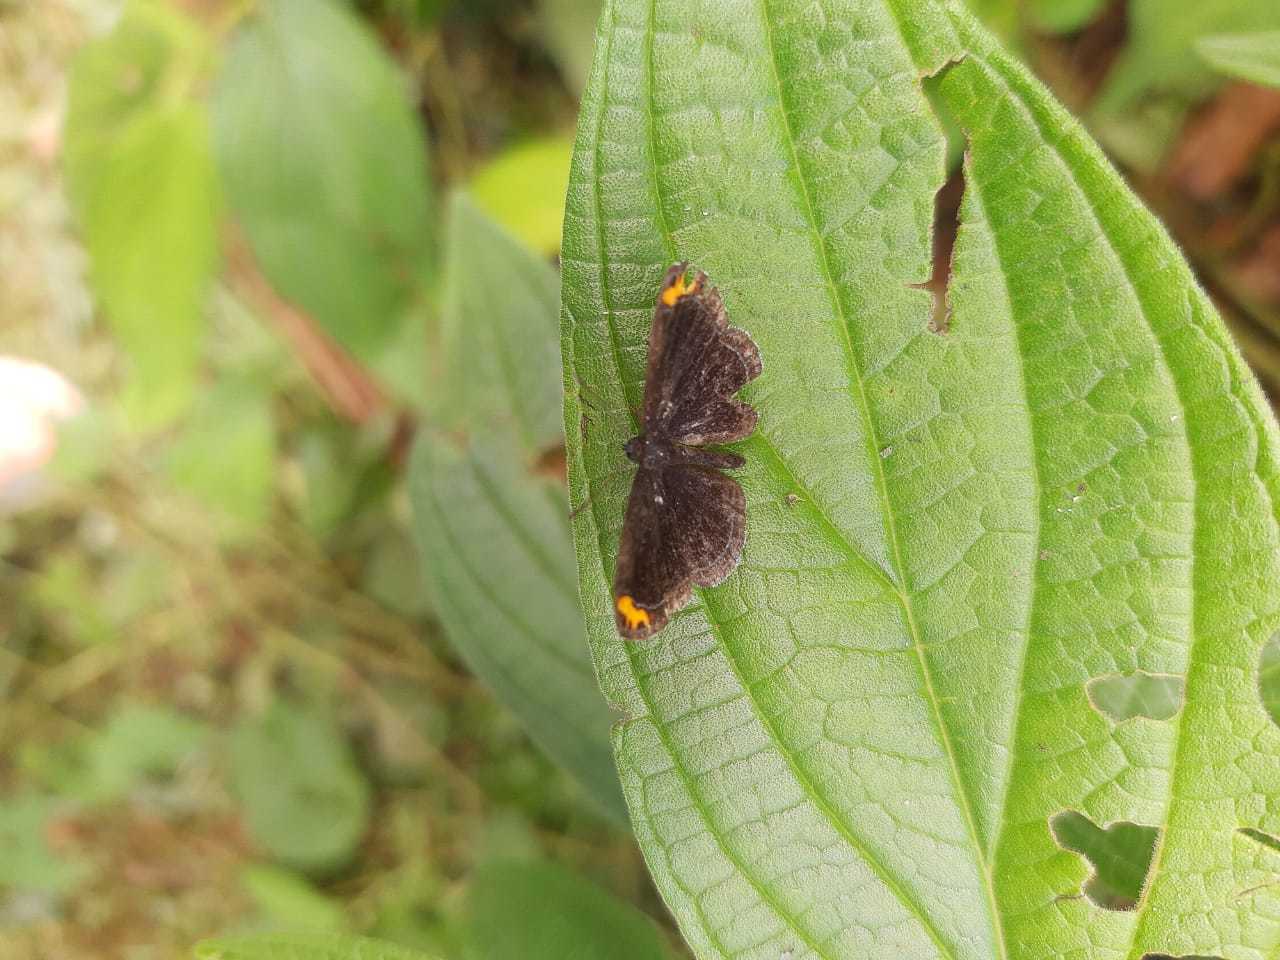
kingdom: Animalia
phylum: Arthropoda
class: Insecta
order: Lepidoptera
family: Riodinidae
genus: Nelone
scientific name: Nelone cadmeis
